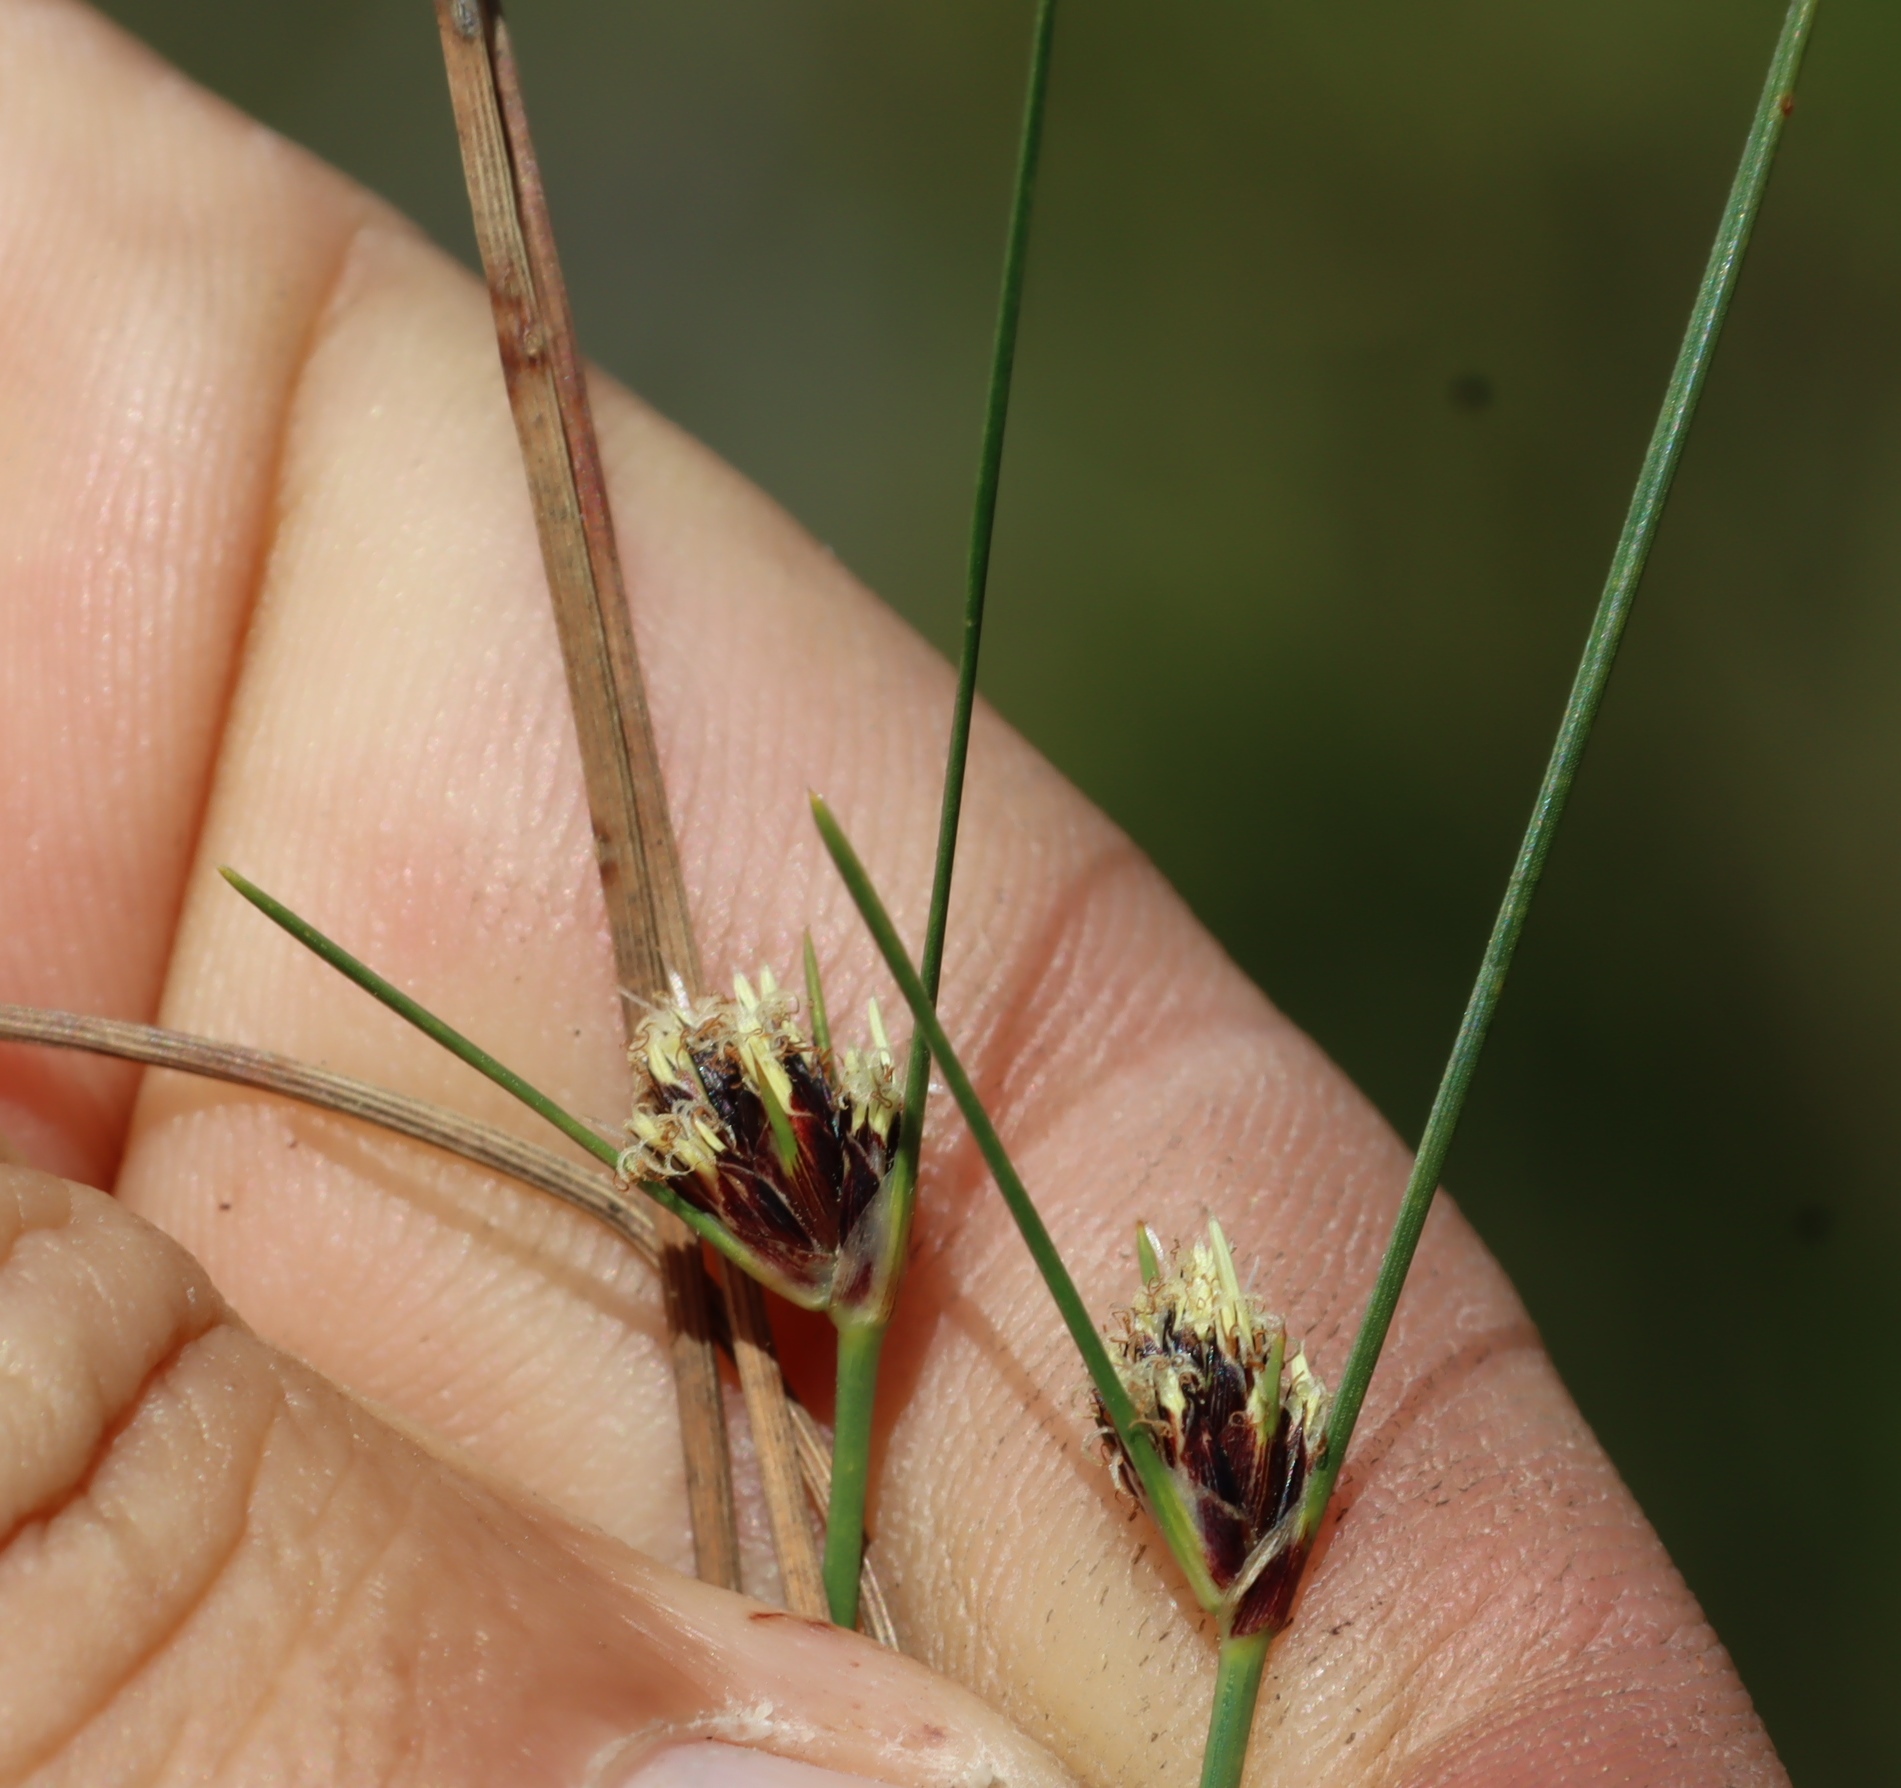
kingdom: Plantae
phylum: Tracheophyta
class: Liliopsida
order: Poales
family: Cyperaceae
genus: Ficinia
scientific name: Ficinia indica
